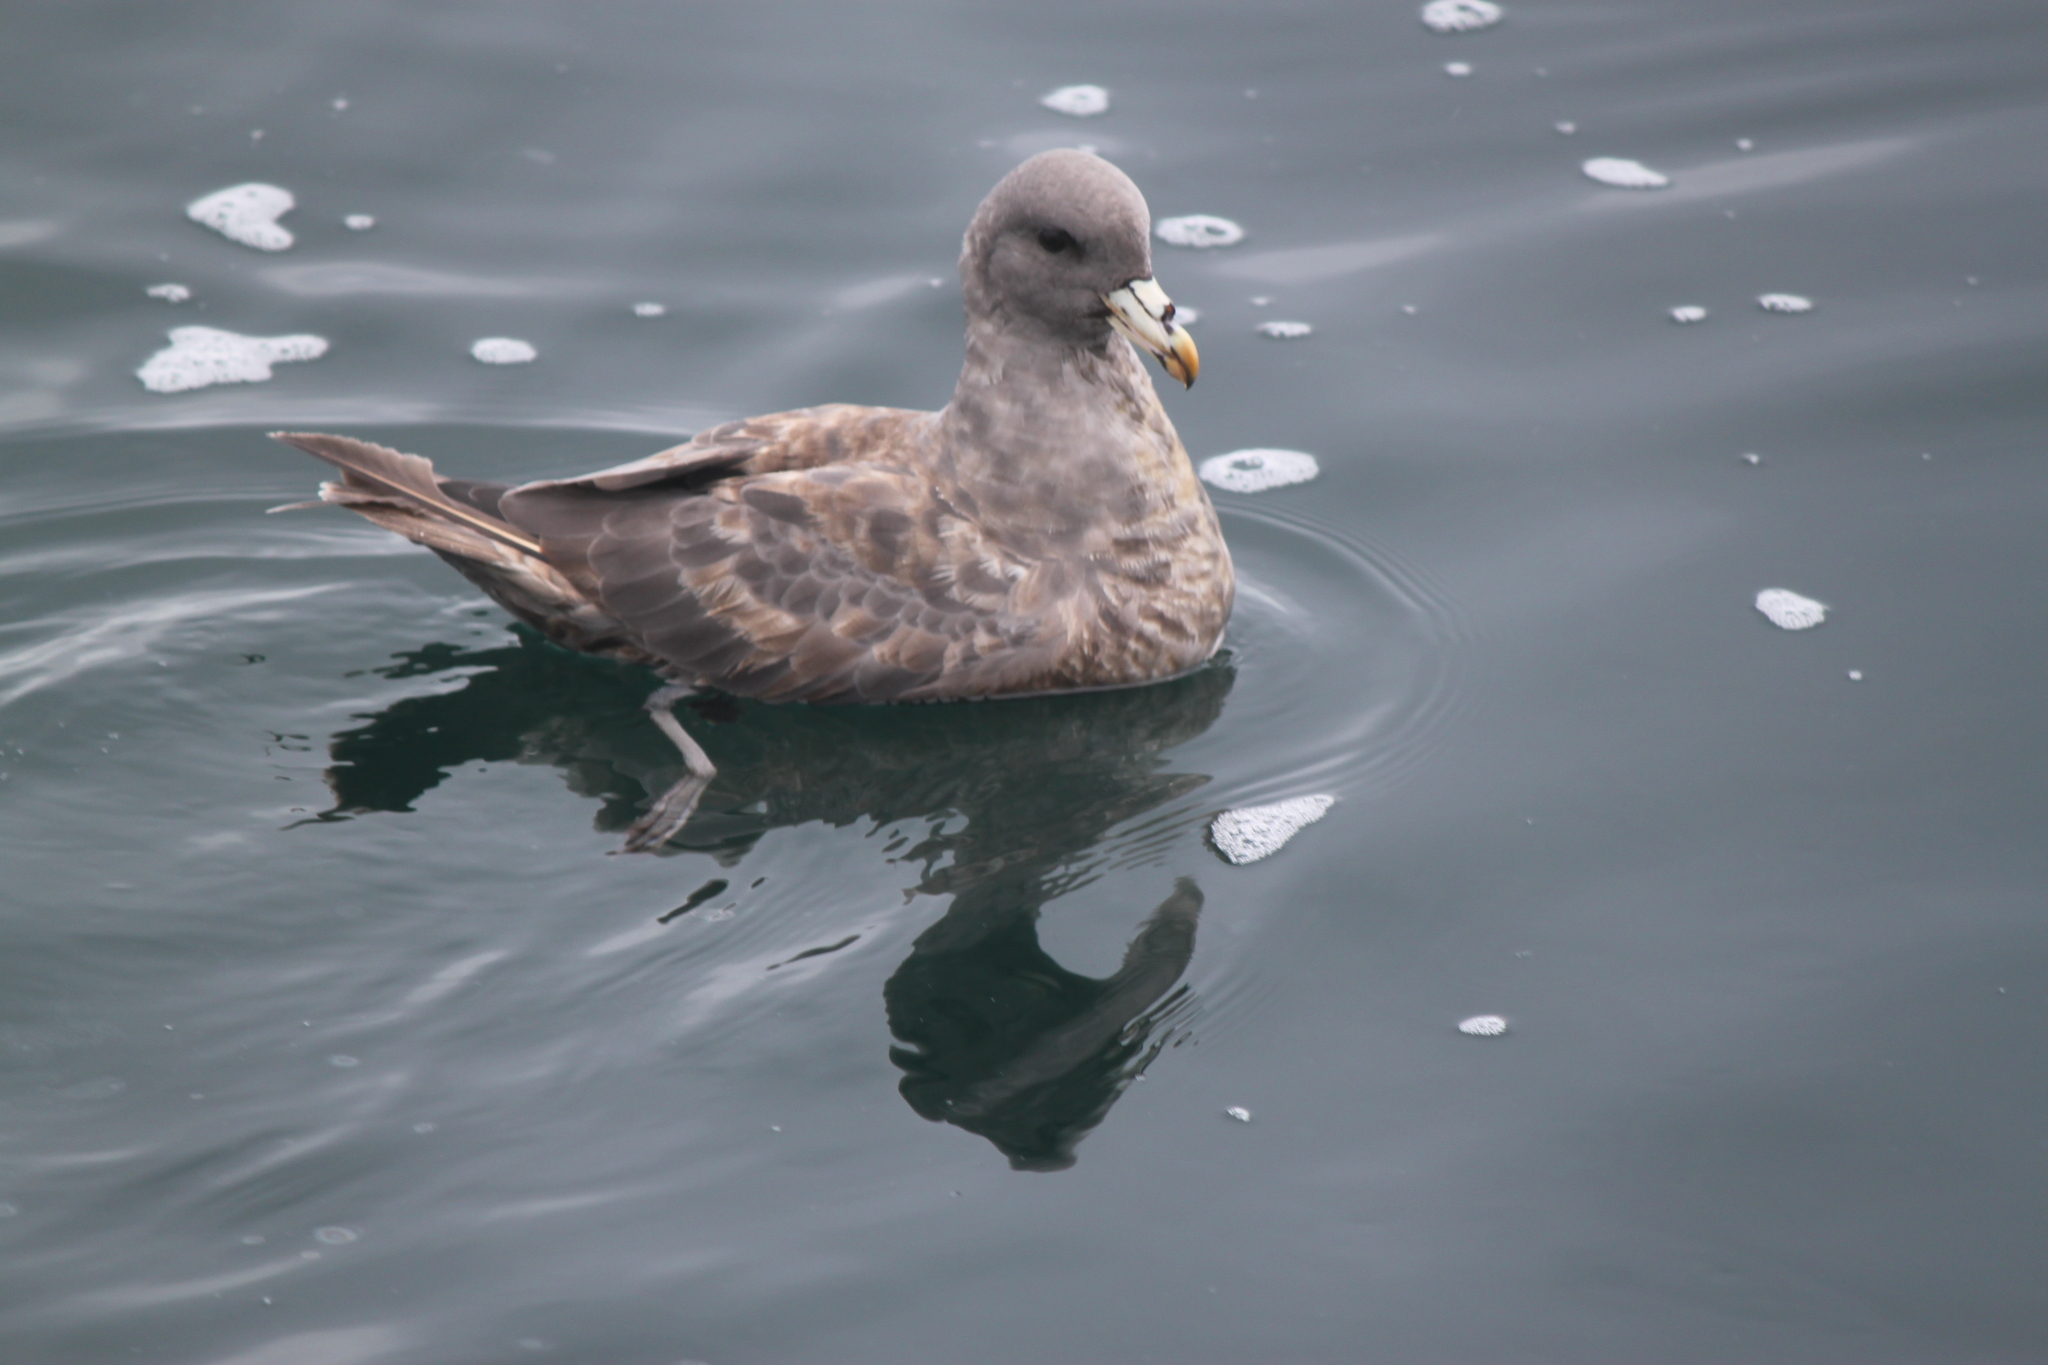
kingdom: Animalia
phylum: Chordata
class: Aves
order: Procellariiformes
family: Procellariidae
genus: Fulmarus
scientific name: Fulmarus glacialis
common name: Northern fulmar
